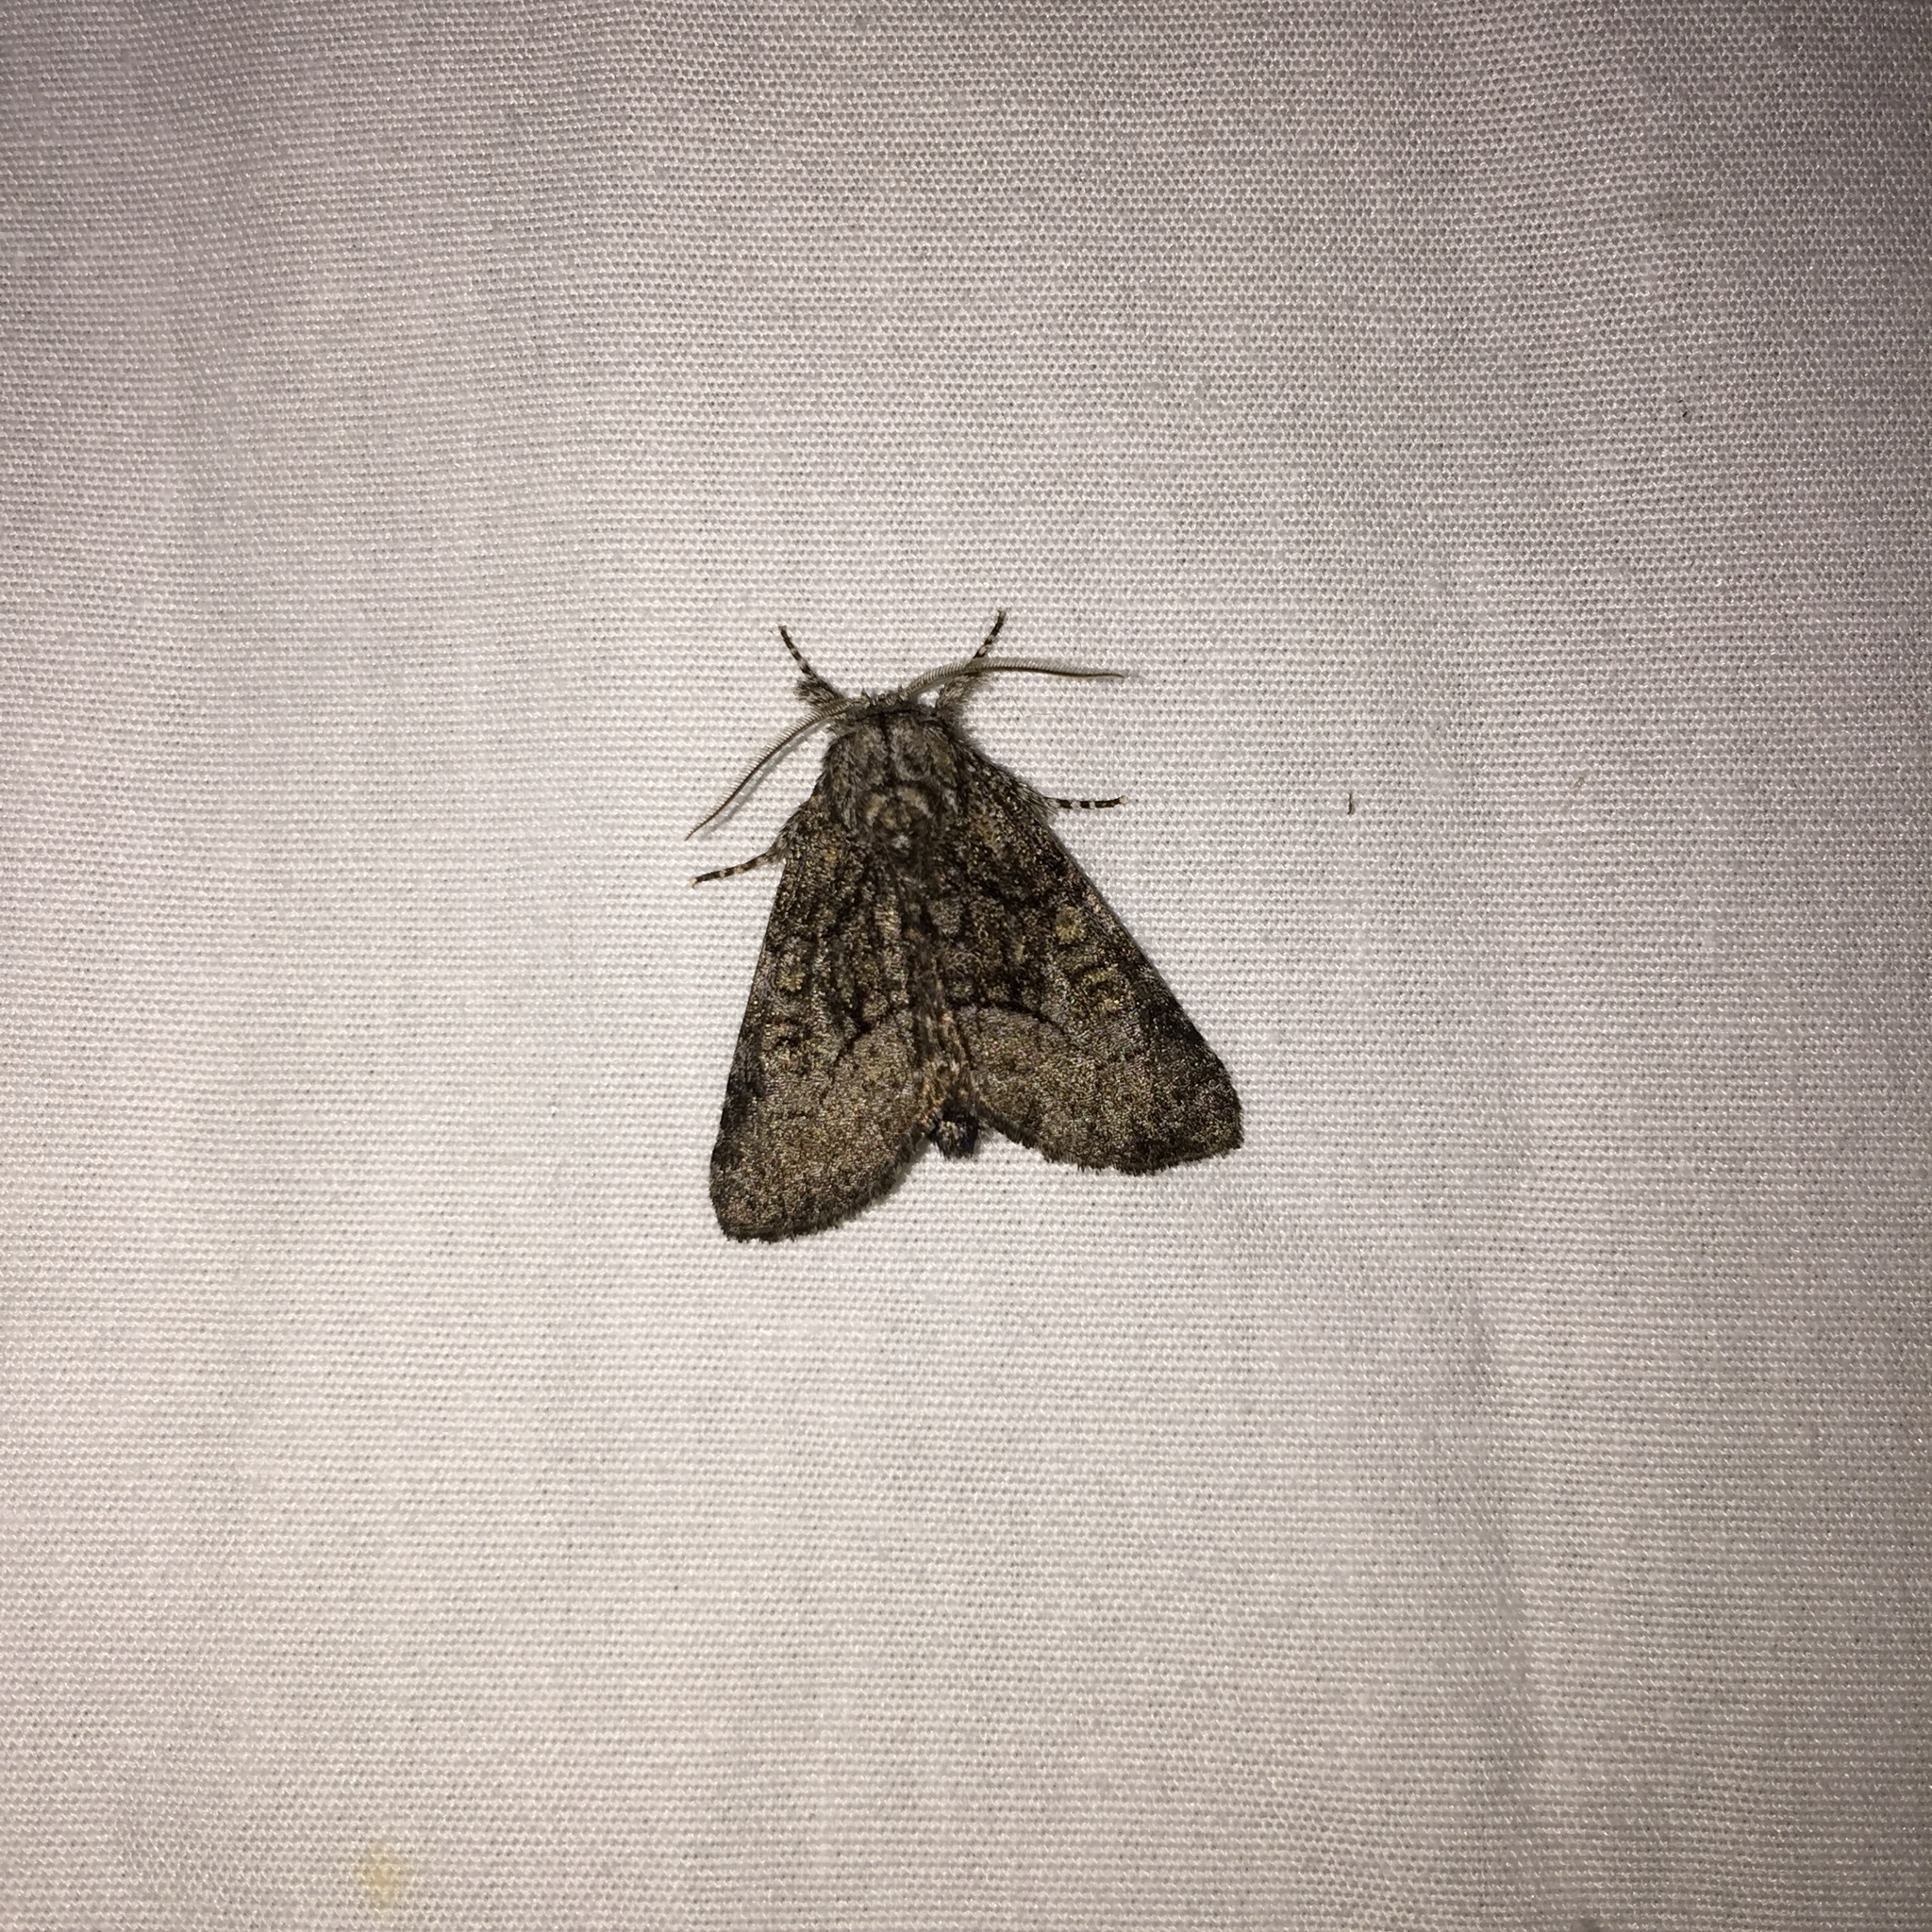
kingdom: Animalia
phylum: Arthropoda
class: Insecta
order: Lepidoptera
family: Noctuidae
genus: Raphia
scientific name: Raphia frater
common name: Brother
